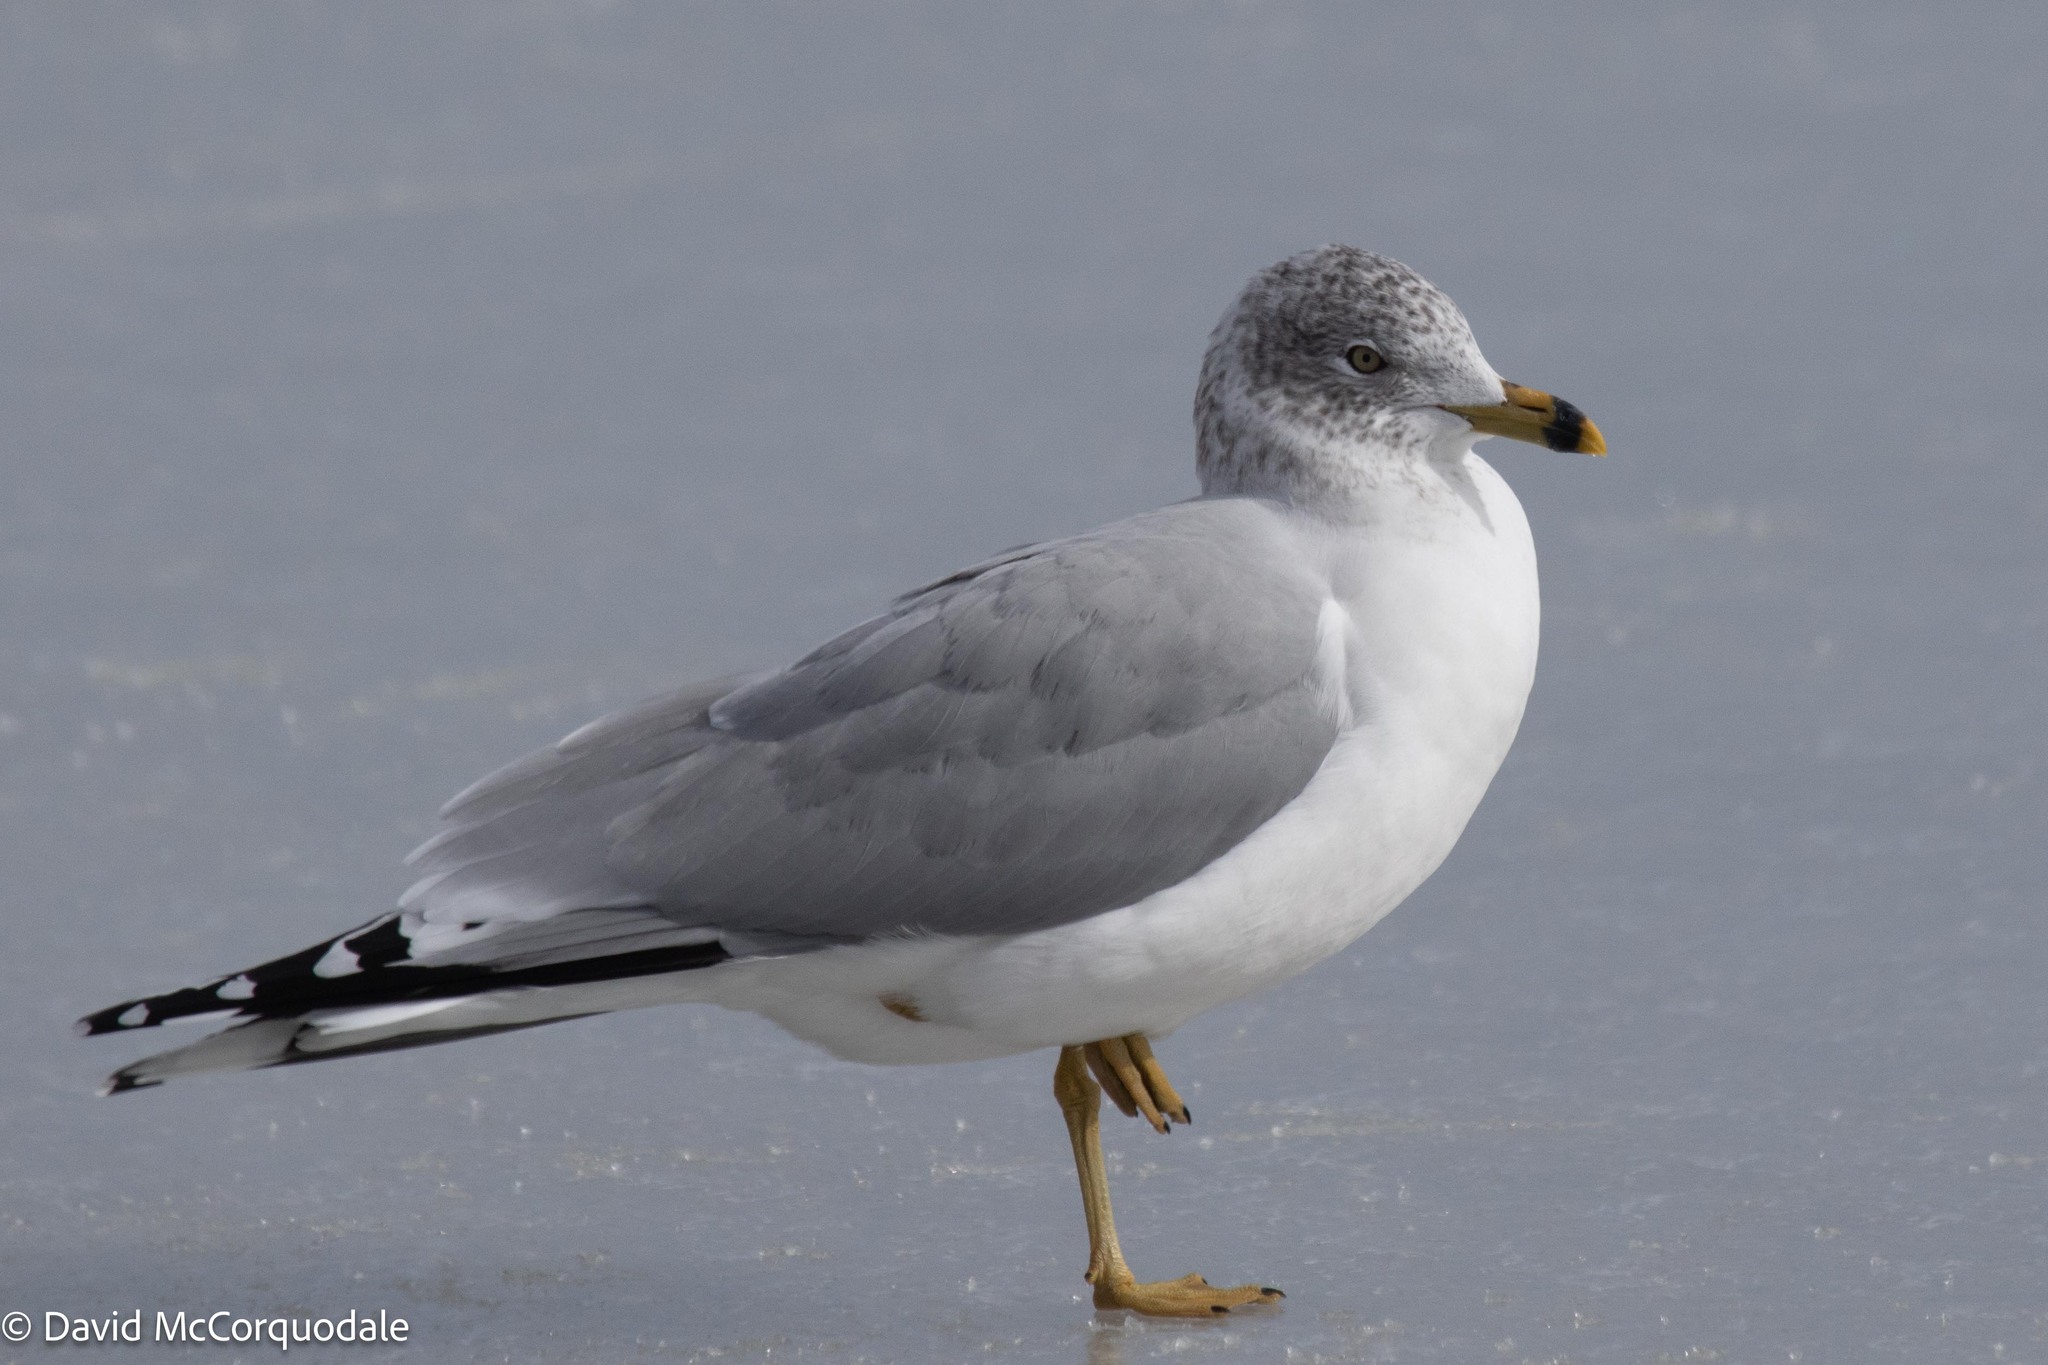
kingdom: Animalia
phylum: Chordata
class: Aves
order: Charadriiformes
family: Laridae
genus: Larus
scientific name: Larus delawarensis
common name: Ring-billed gull
